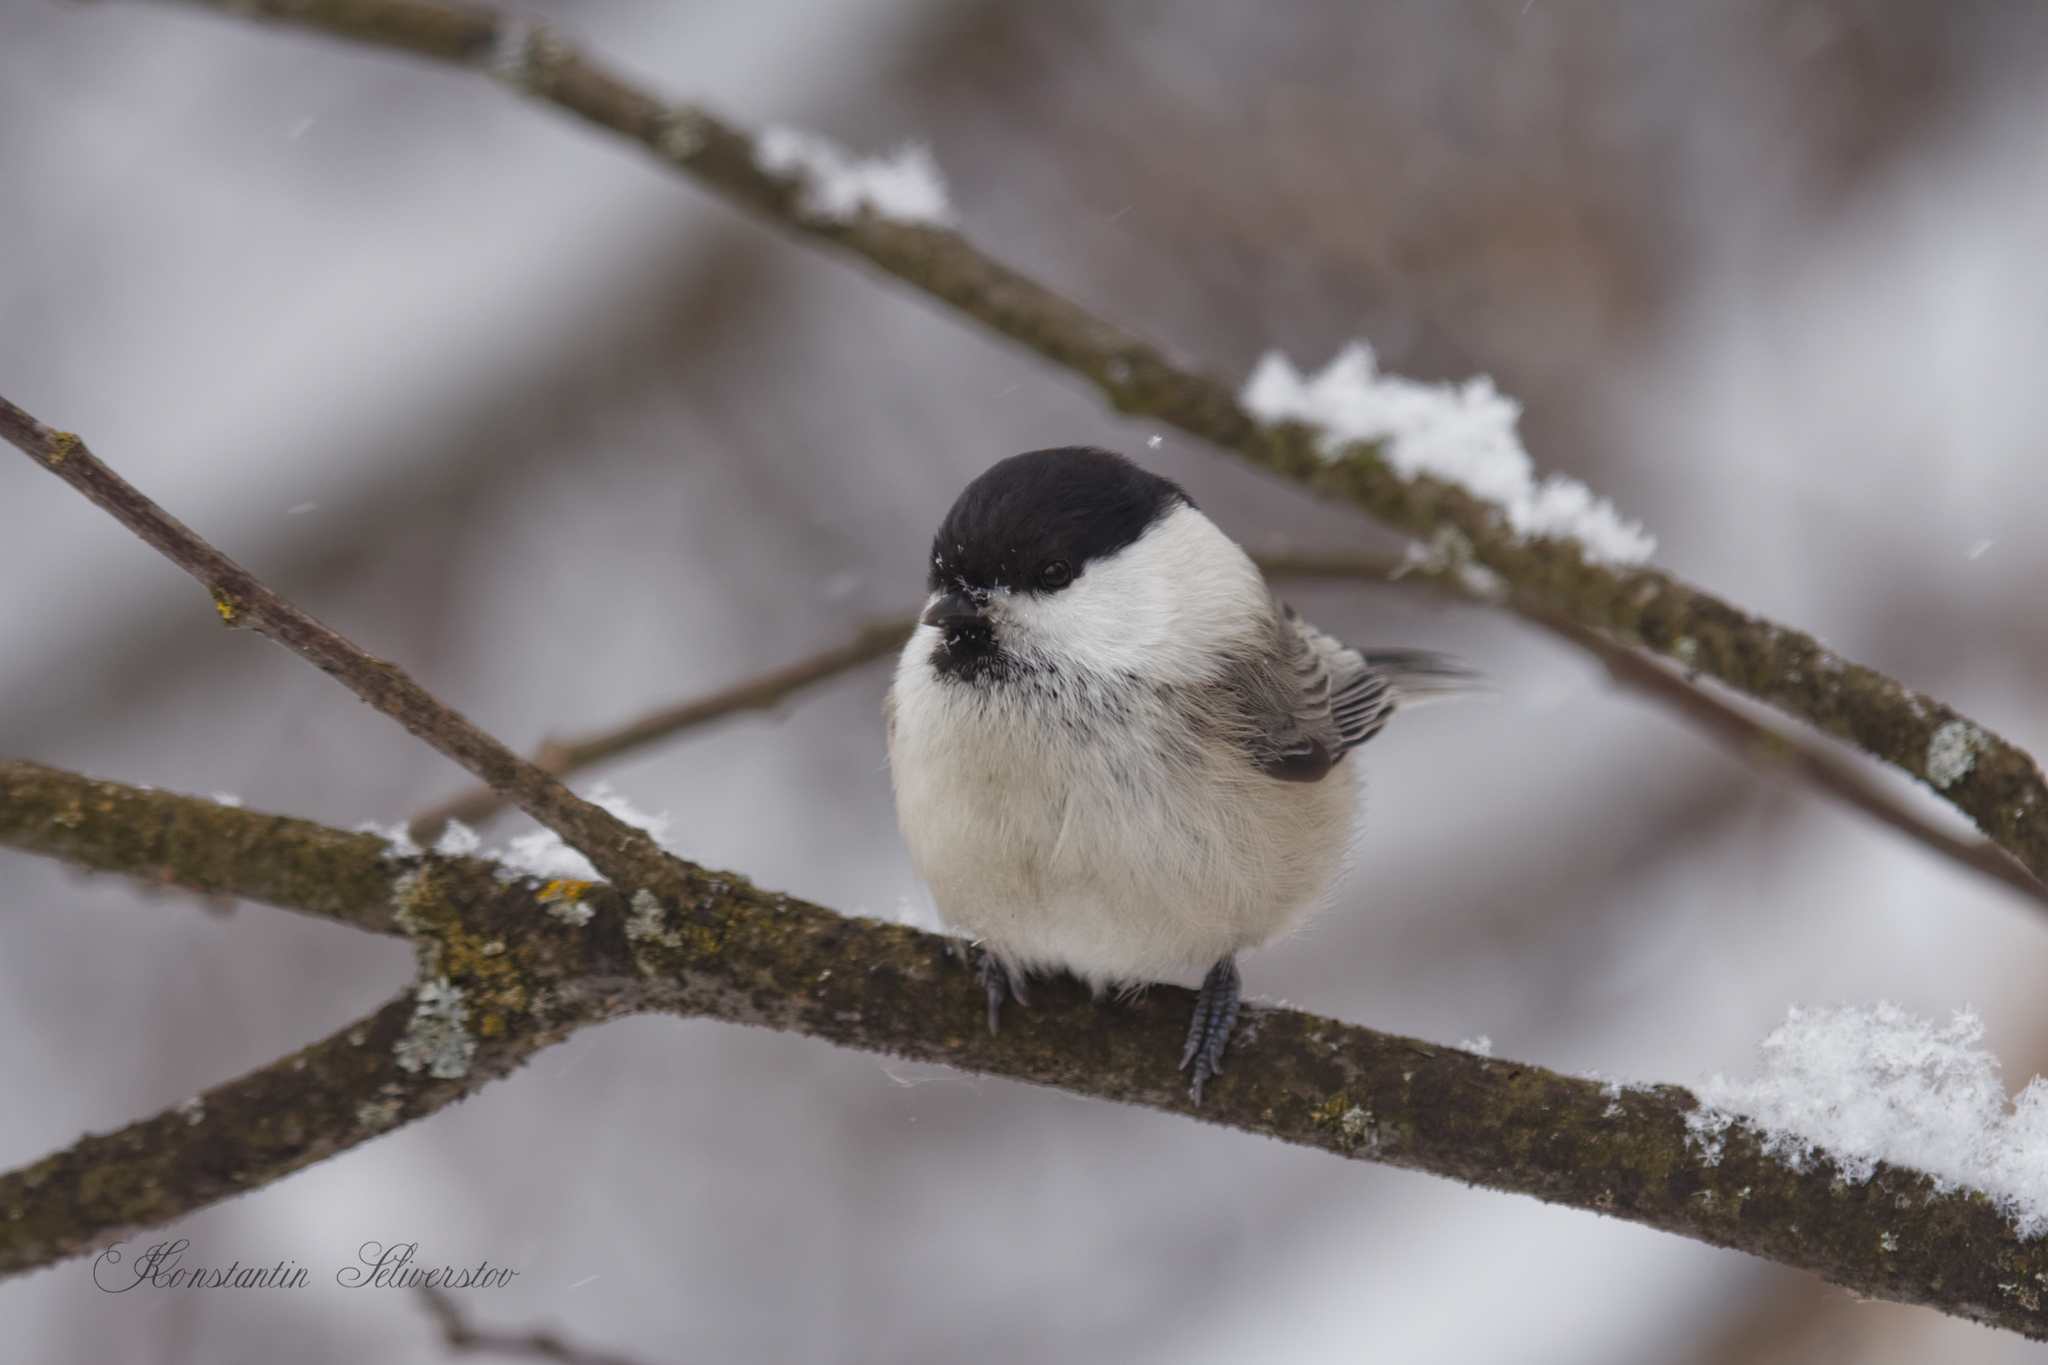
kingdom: Animalia
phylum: Chordata
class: Aves
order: Passeriformes
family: Paridae
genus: Poecile
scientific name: Poecile montanus
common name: Willow tit
